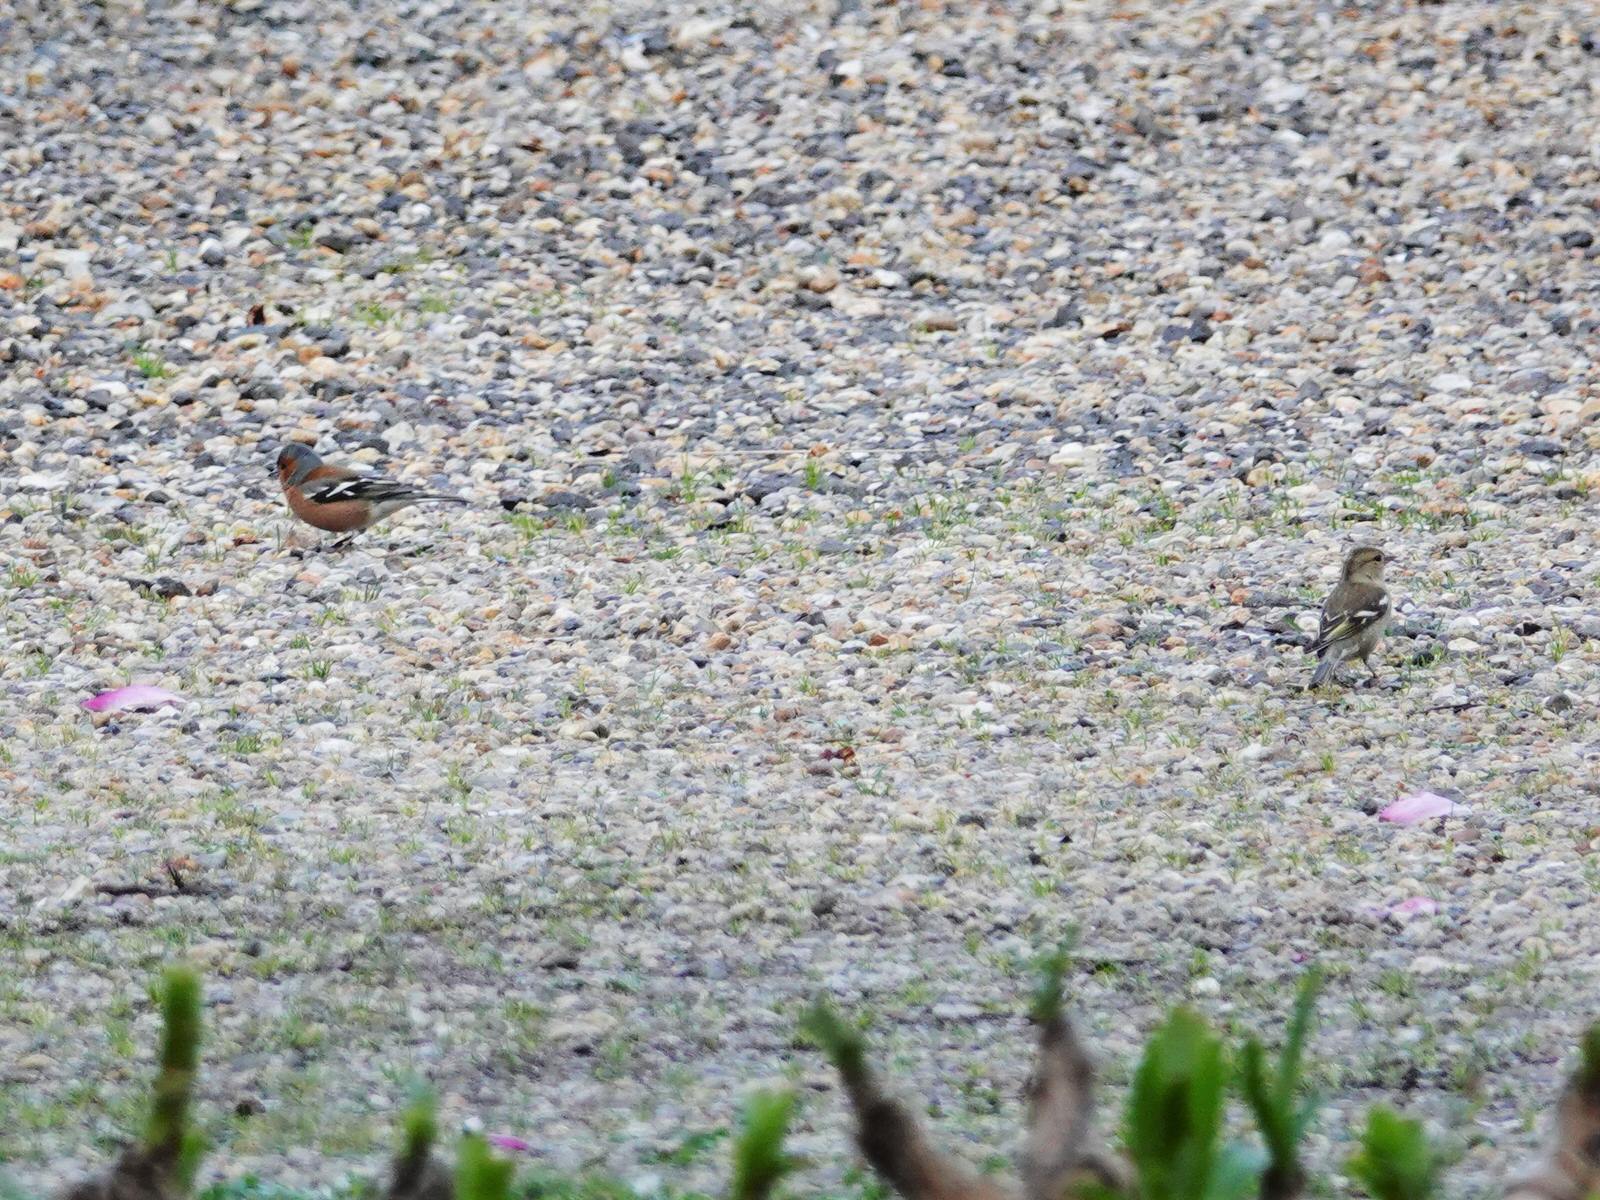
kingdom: Animalia
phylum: Chordata
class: Aves
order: Passeriformes
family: Fringillidae
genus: Fringilla
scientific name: Fringilla coelebs
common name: Common chaffinch
